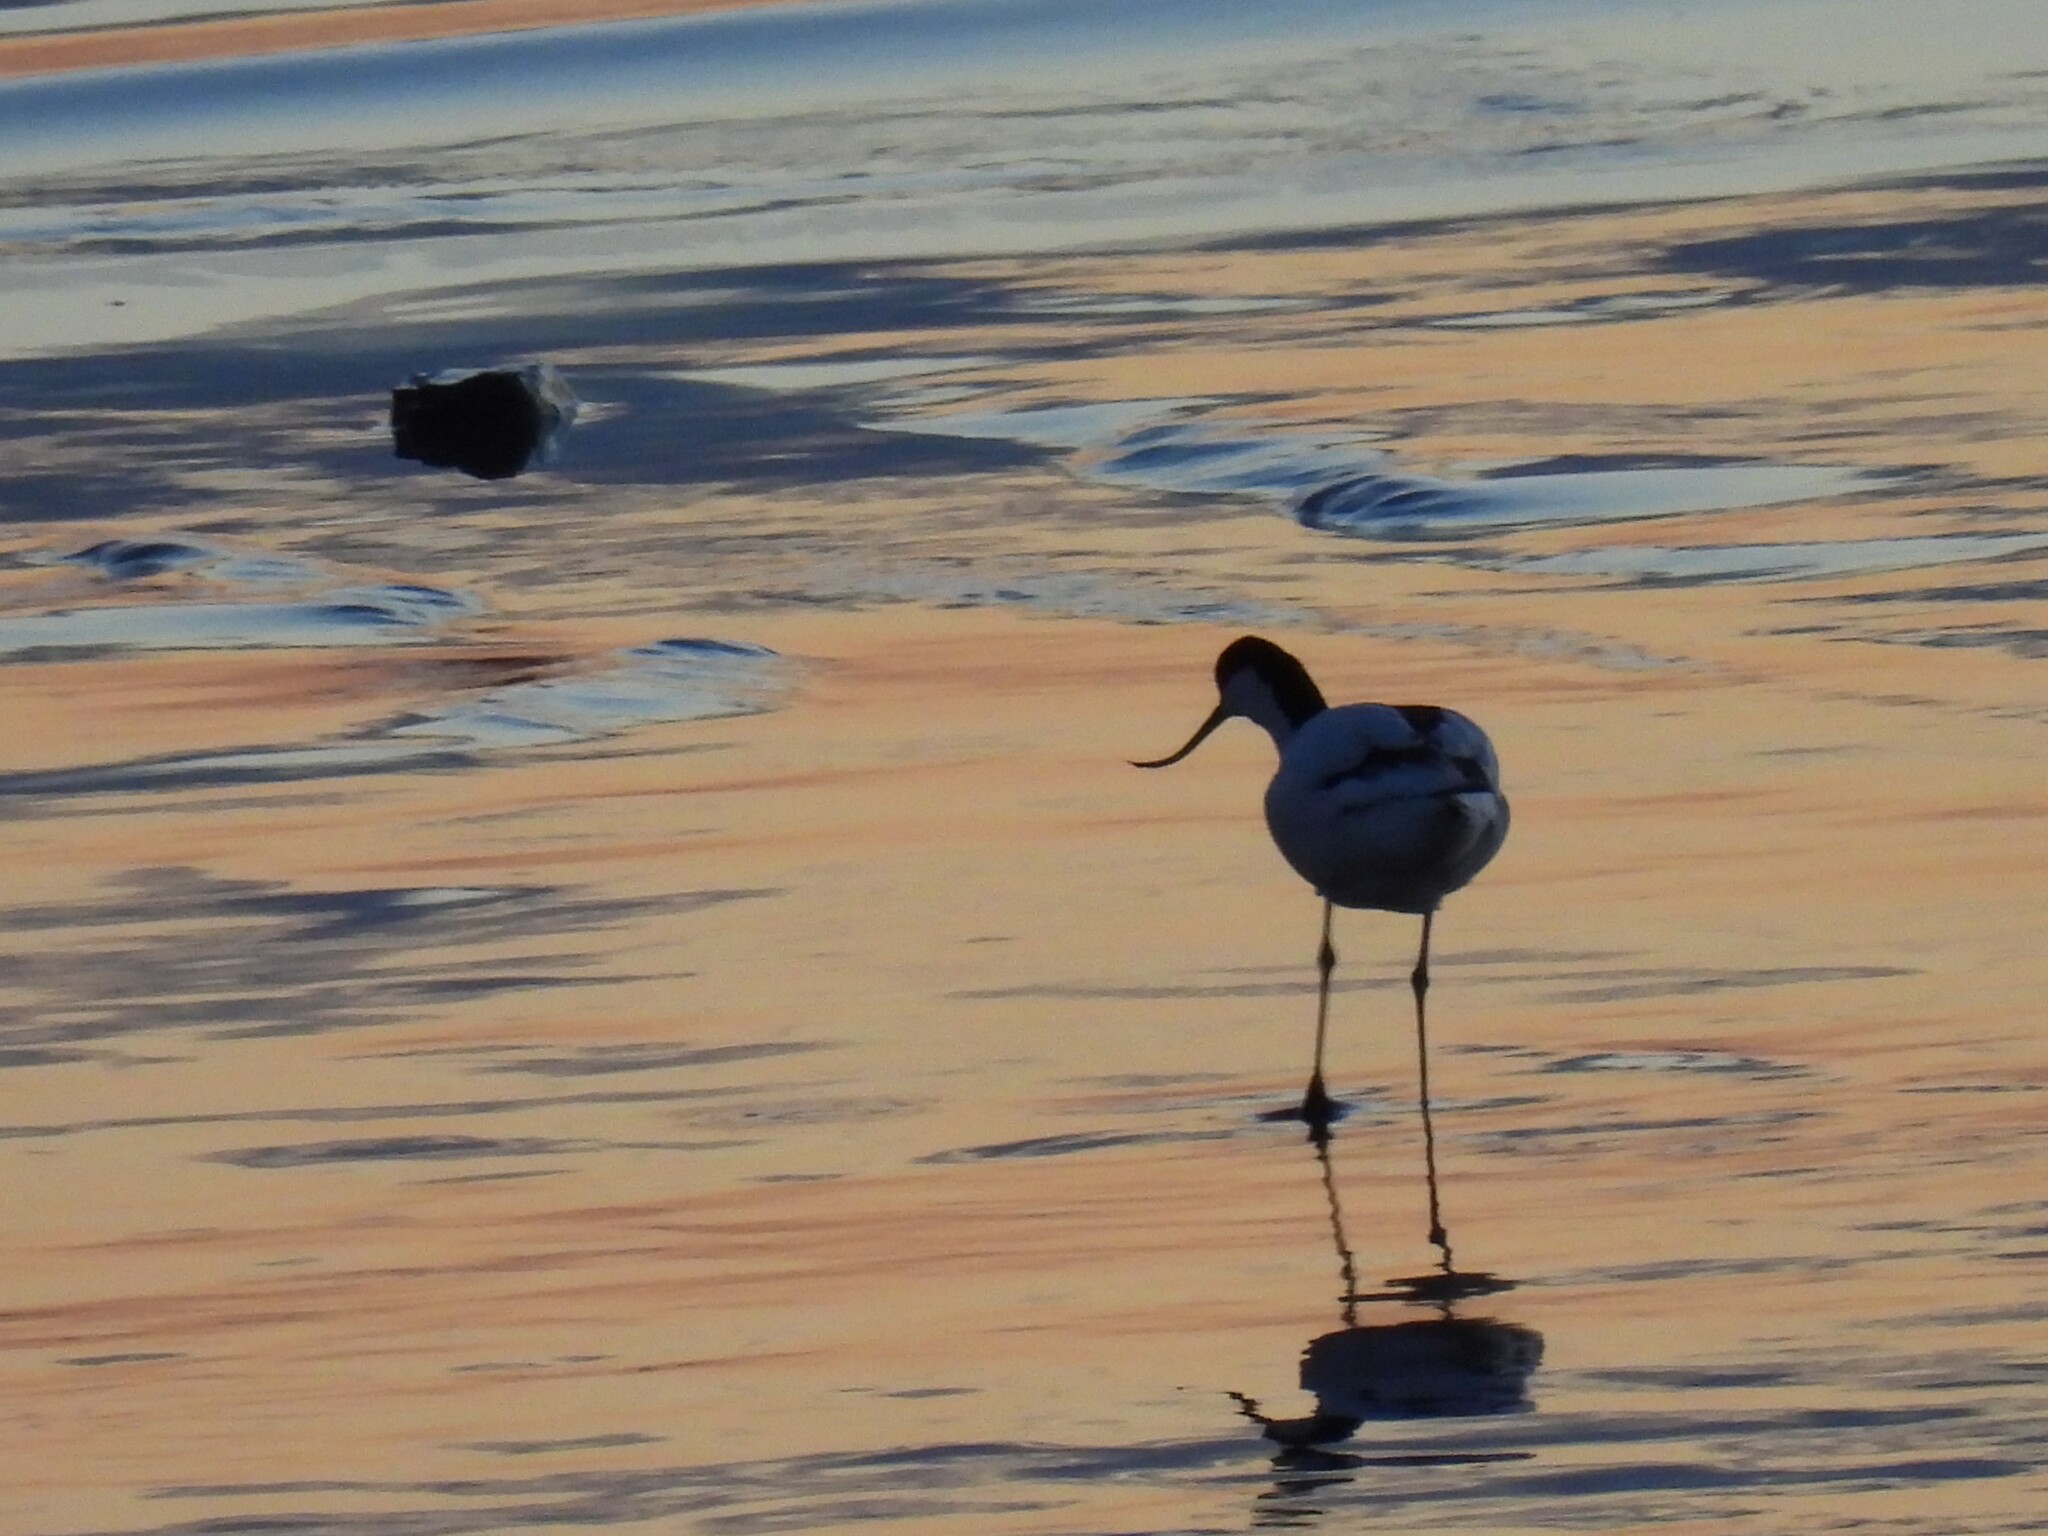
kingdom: Animalia
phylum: Chordata
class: Aves
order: Charadriiformes
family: Recurvirostridae
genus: Recurvirostra
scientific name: Recurvirostra avosetta
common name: Pied avocet
